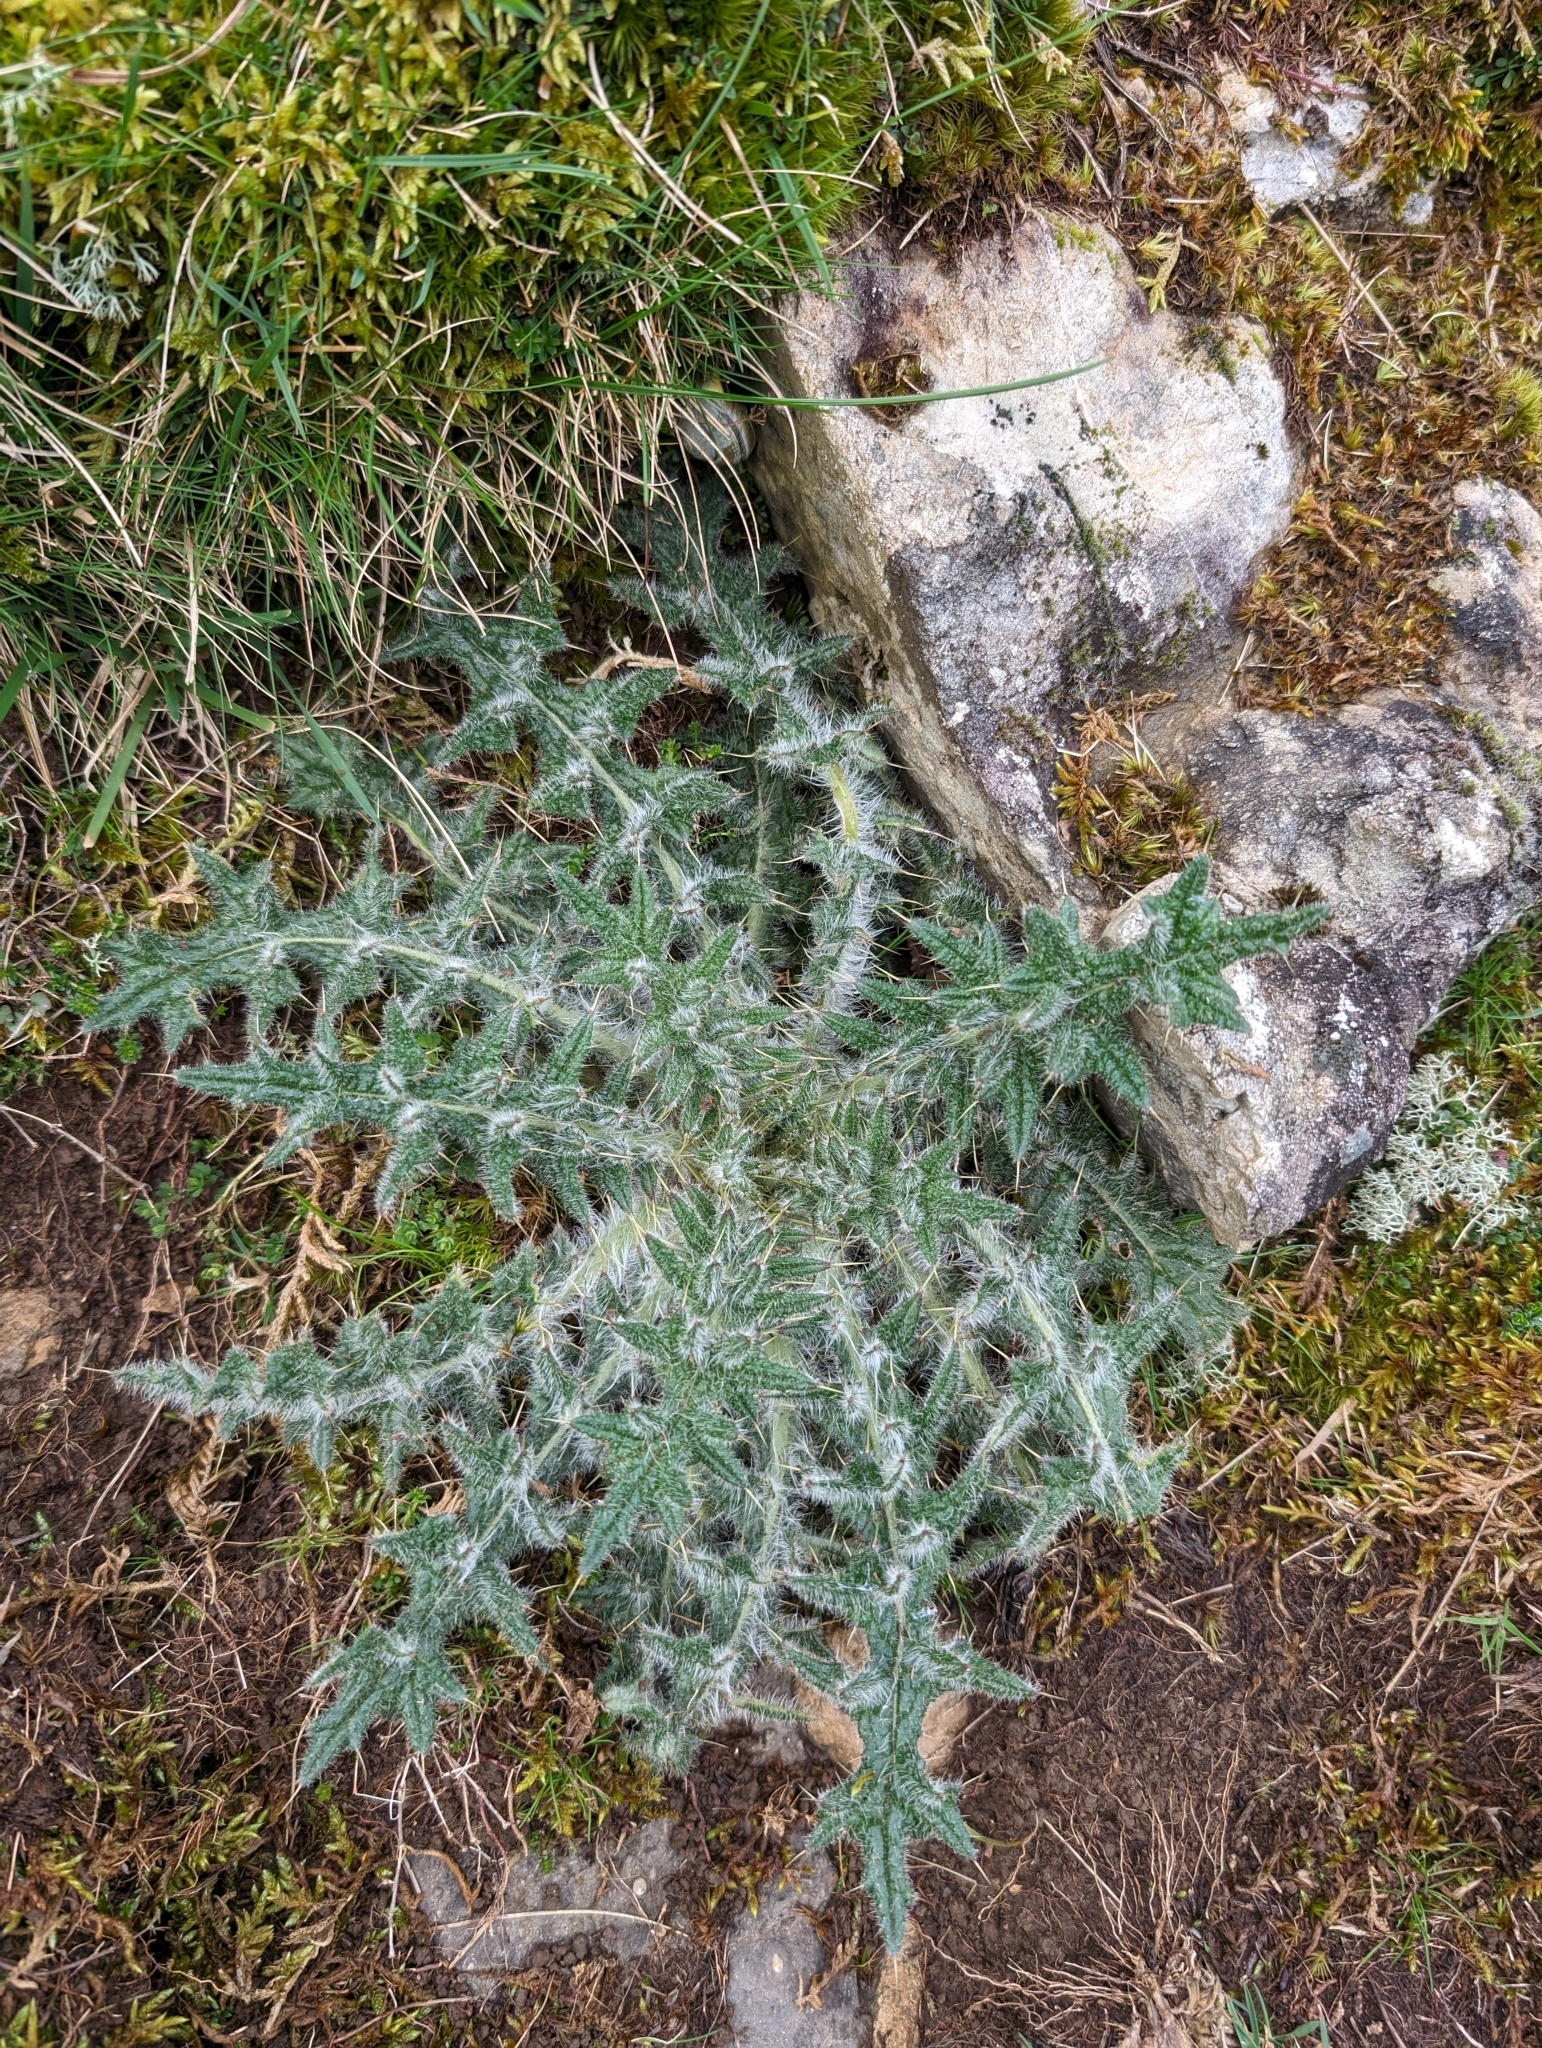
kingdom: Plantae
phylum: Tracheophyta
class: Magnoliopsida
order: Asterales
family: Asteraceae
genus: Cirsium
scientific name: Cirsium vulgare
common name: Bull thistle
